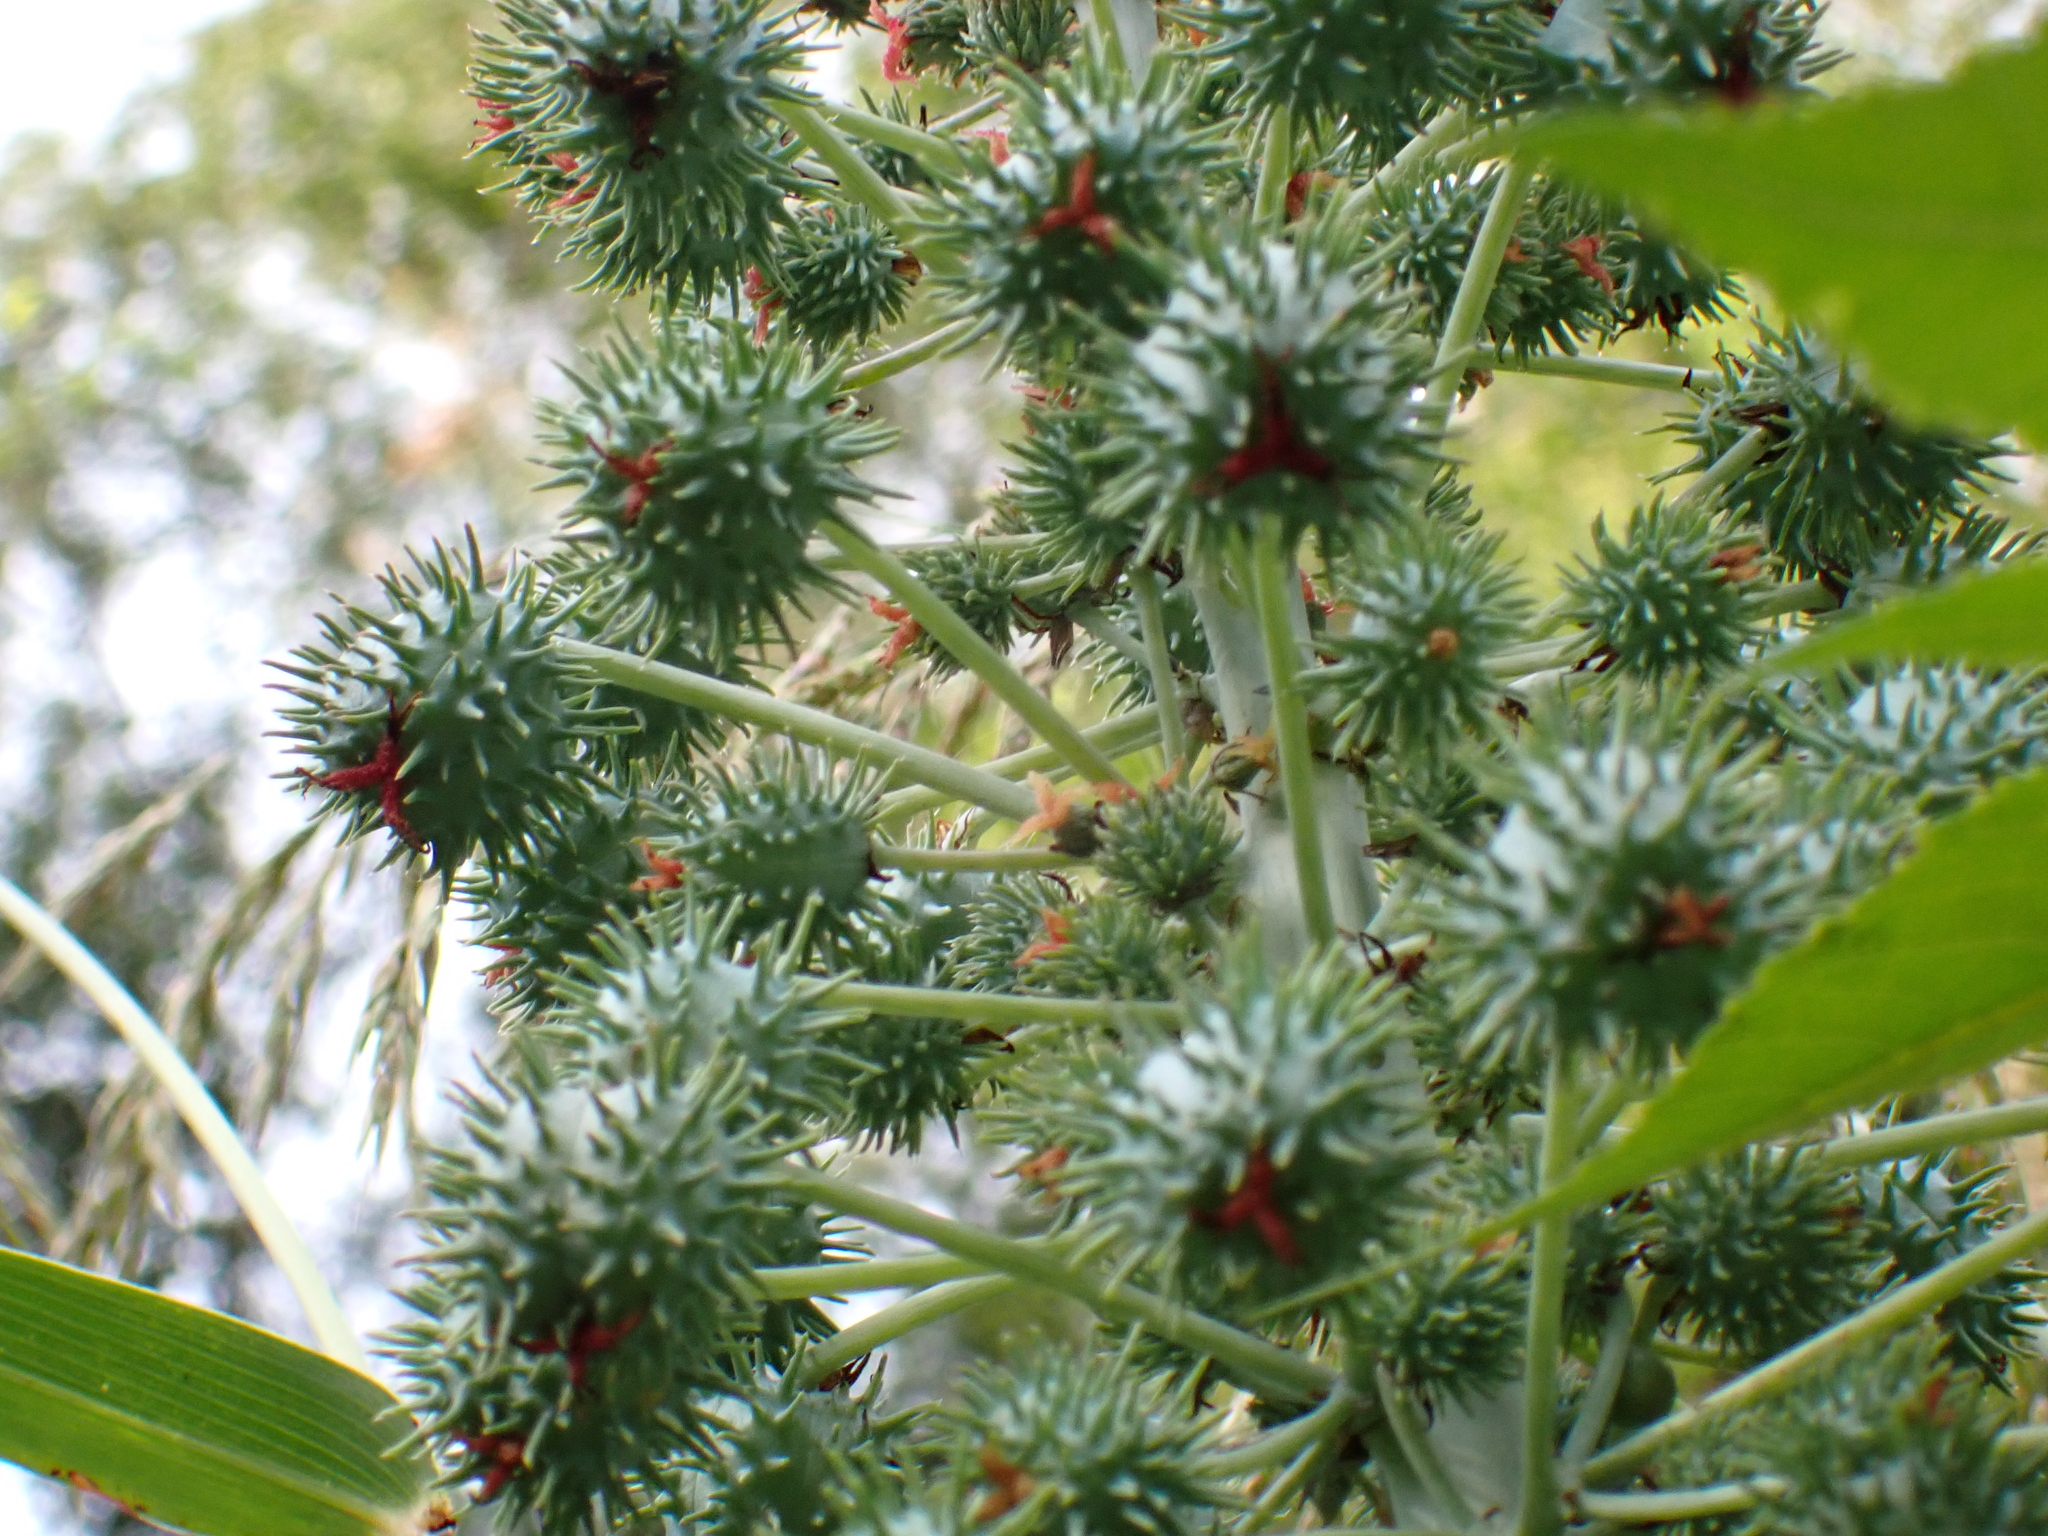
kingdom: Plantae
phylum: Tracheophyta
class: Magnoliopsida
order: Malpighiales
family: Euphorbiaceae
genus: Ricinus
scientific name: Ricinus communis
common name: Castor-oil-plant
